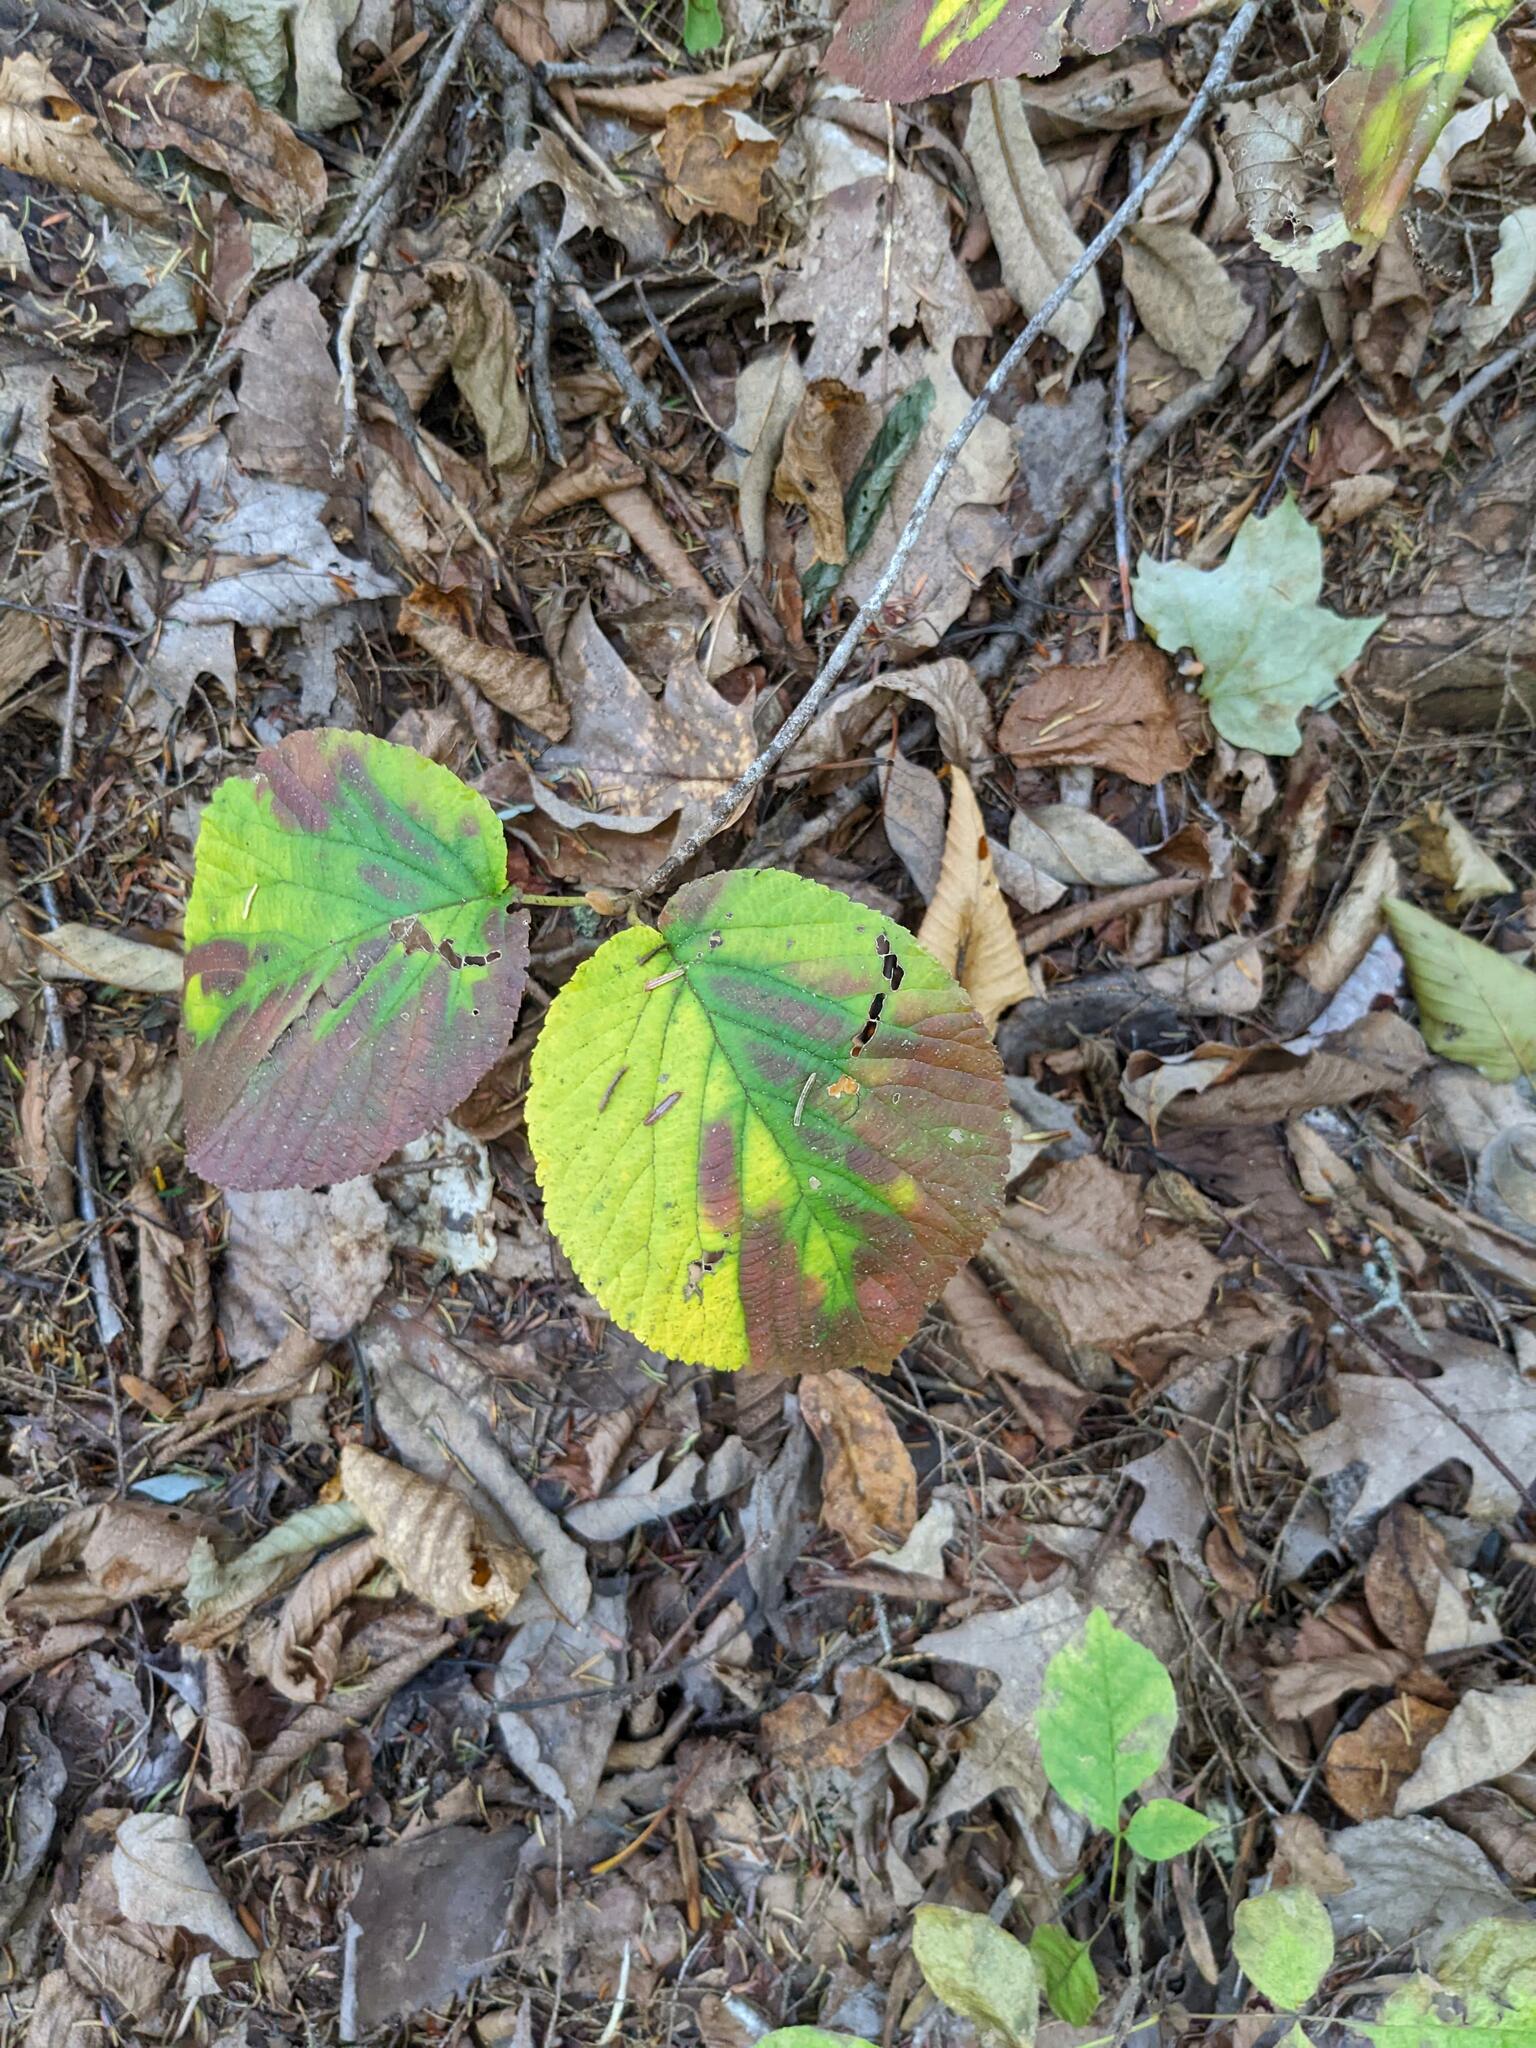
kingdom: Plantae
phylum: Tracheophyta
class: Magnoliopsida
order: Dipsacales
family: Viburnaceae
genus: Viburnum
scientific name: Viburnum lantanoides
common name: Hobblebush
